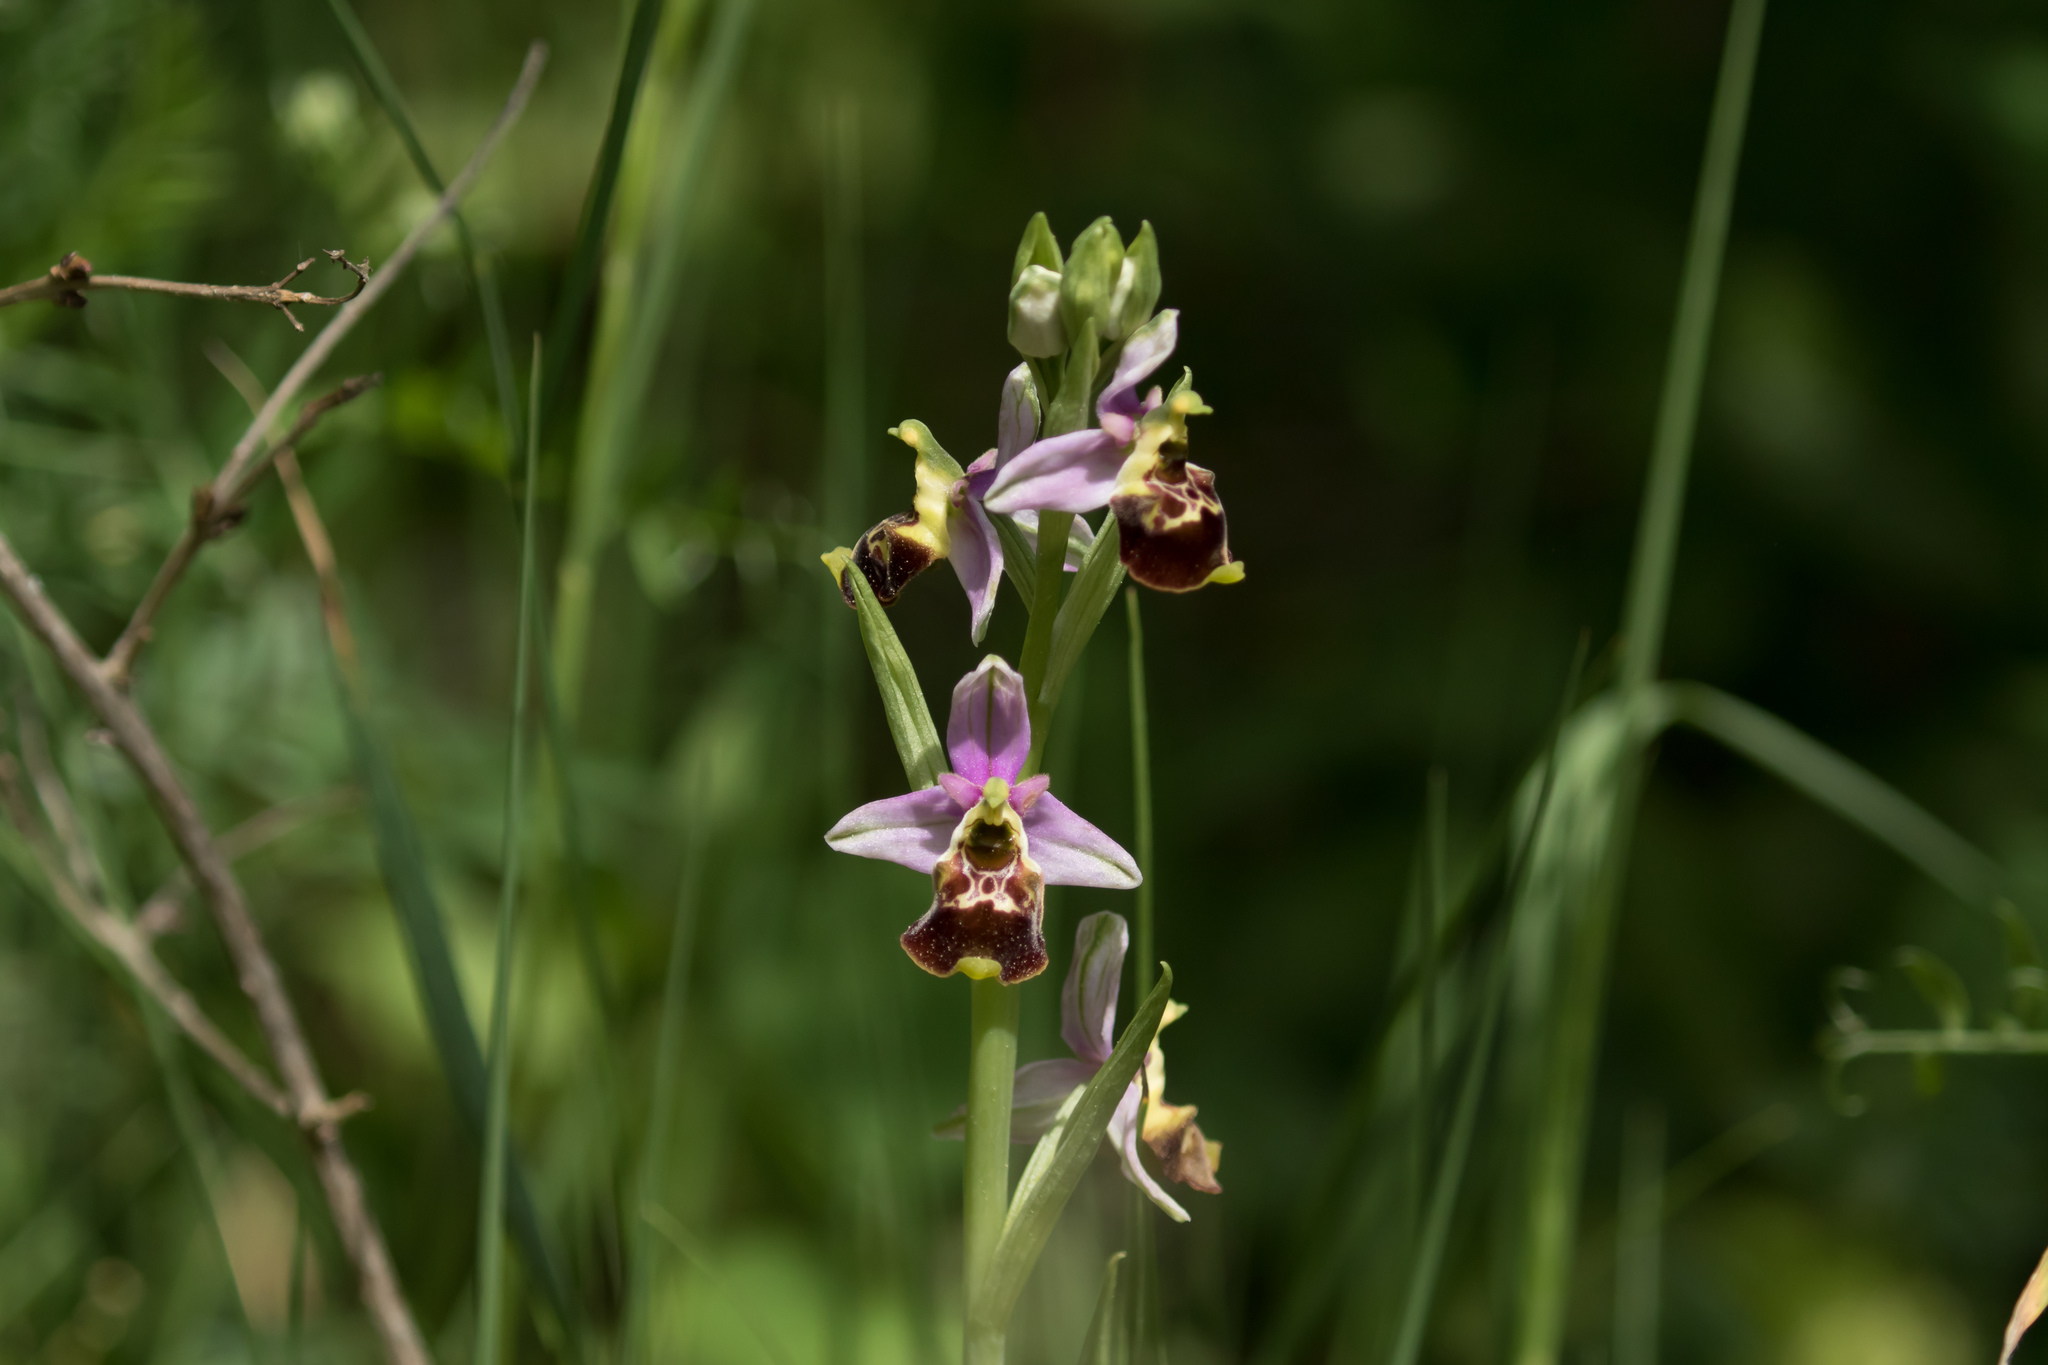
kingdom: Plantae
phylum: Tracheophyta
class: Liliopsida
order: Asparagales
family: Orchidaceae
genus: Ophrys
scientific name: Ophrys holosericea
